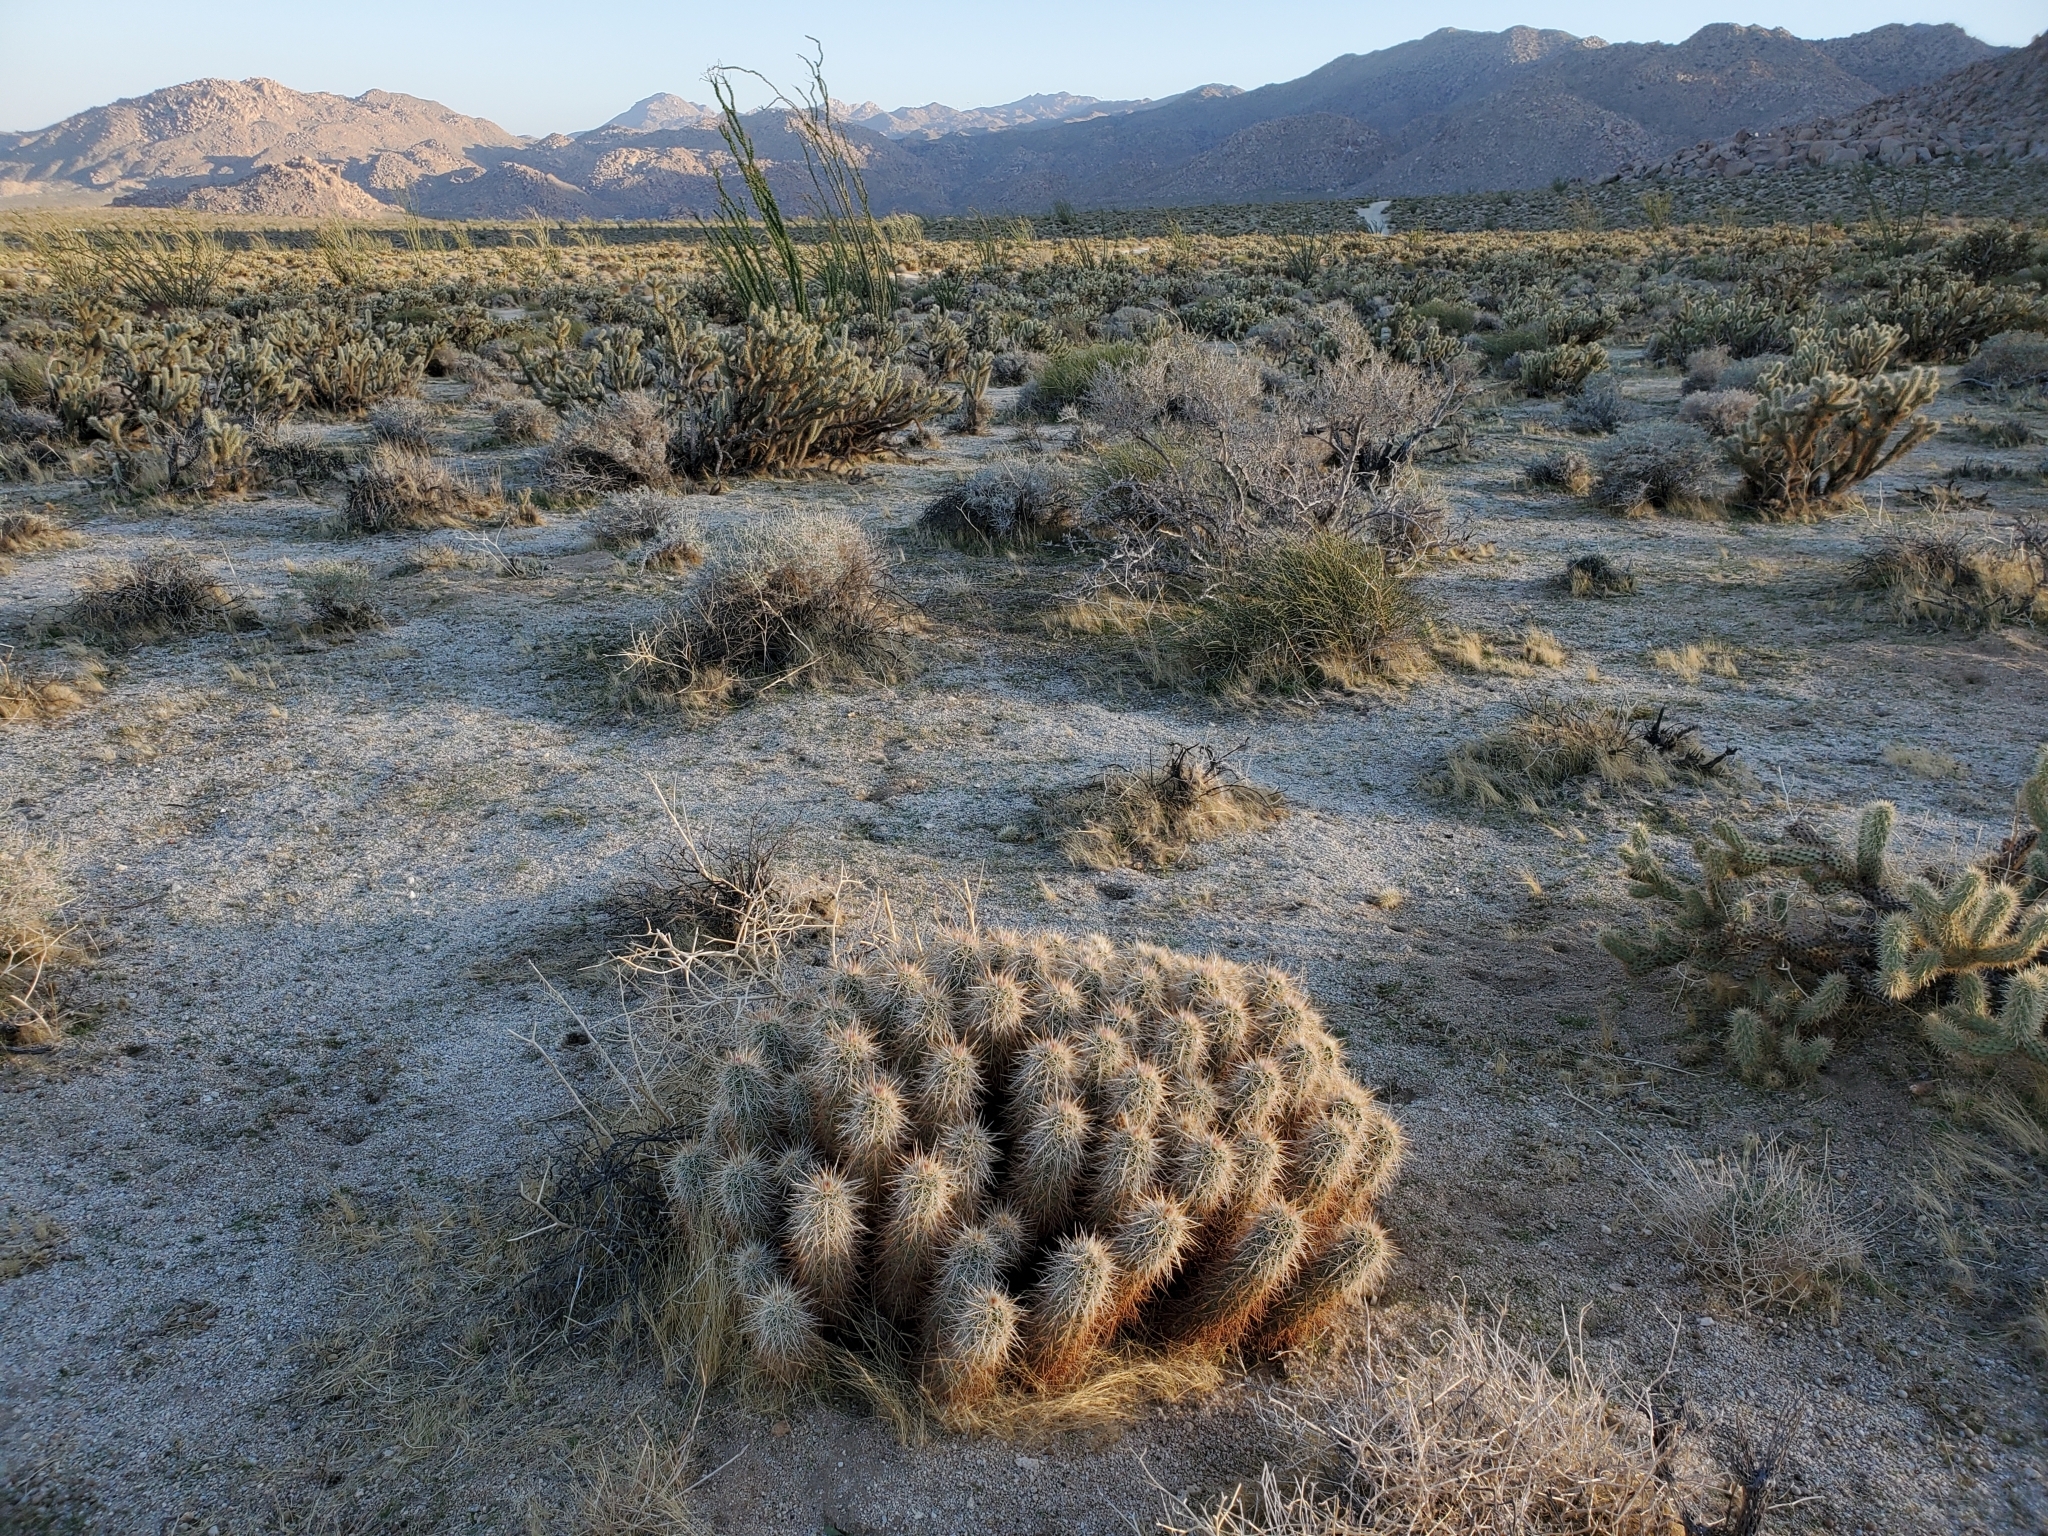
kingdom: Plantae
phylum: Tracheophyta
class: Magnoliopsida
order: Caryophyllales
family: Cactaceae
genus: Echinocereus
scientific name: Echinocereus engelmannii
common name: Engelmann's hedgehog cactus
